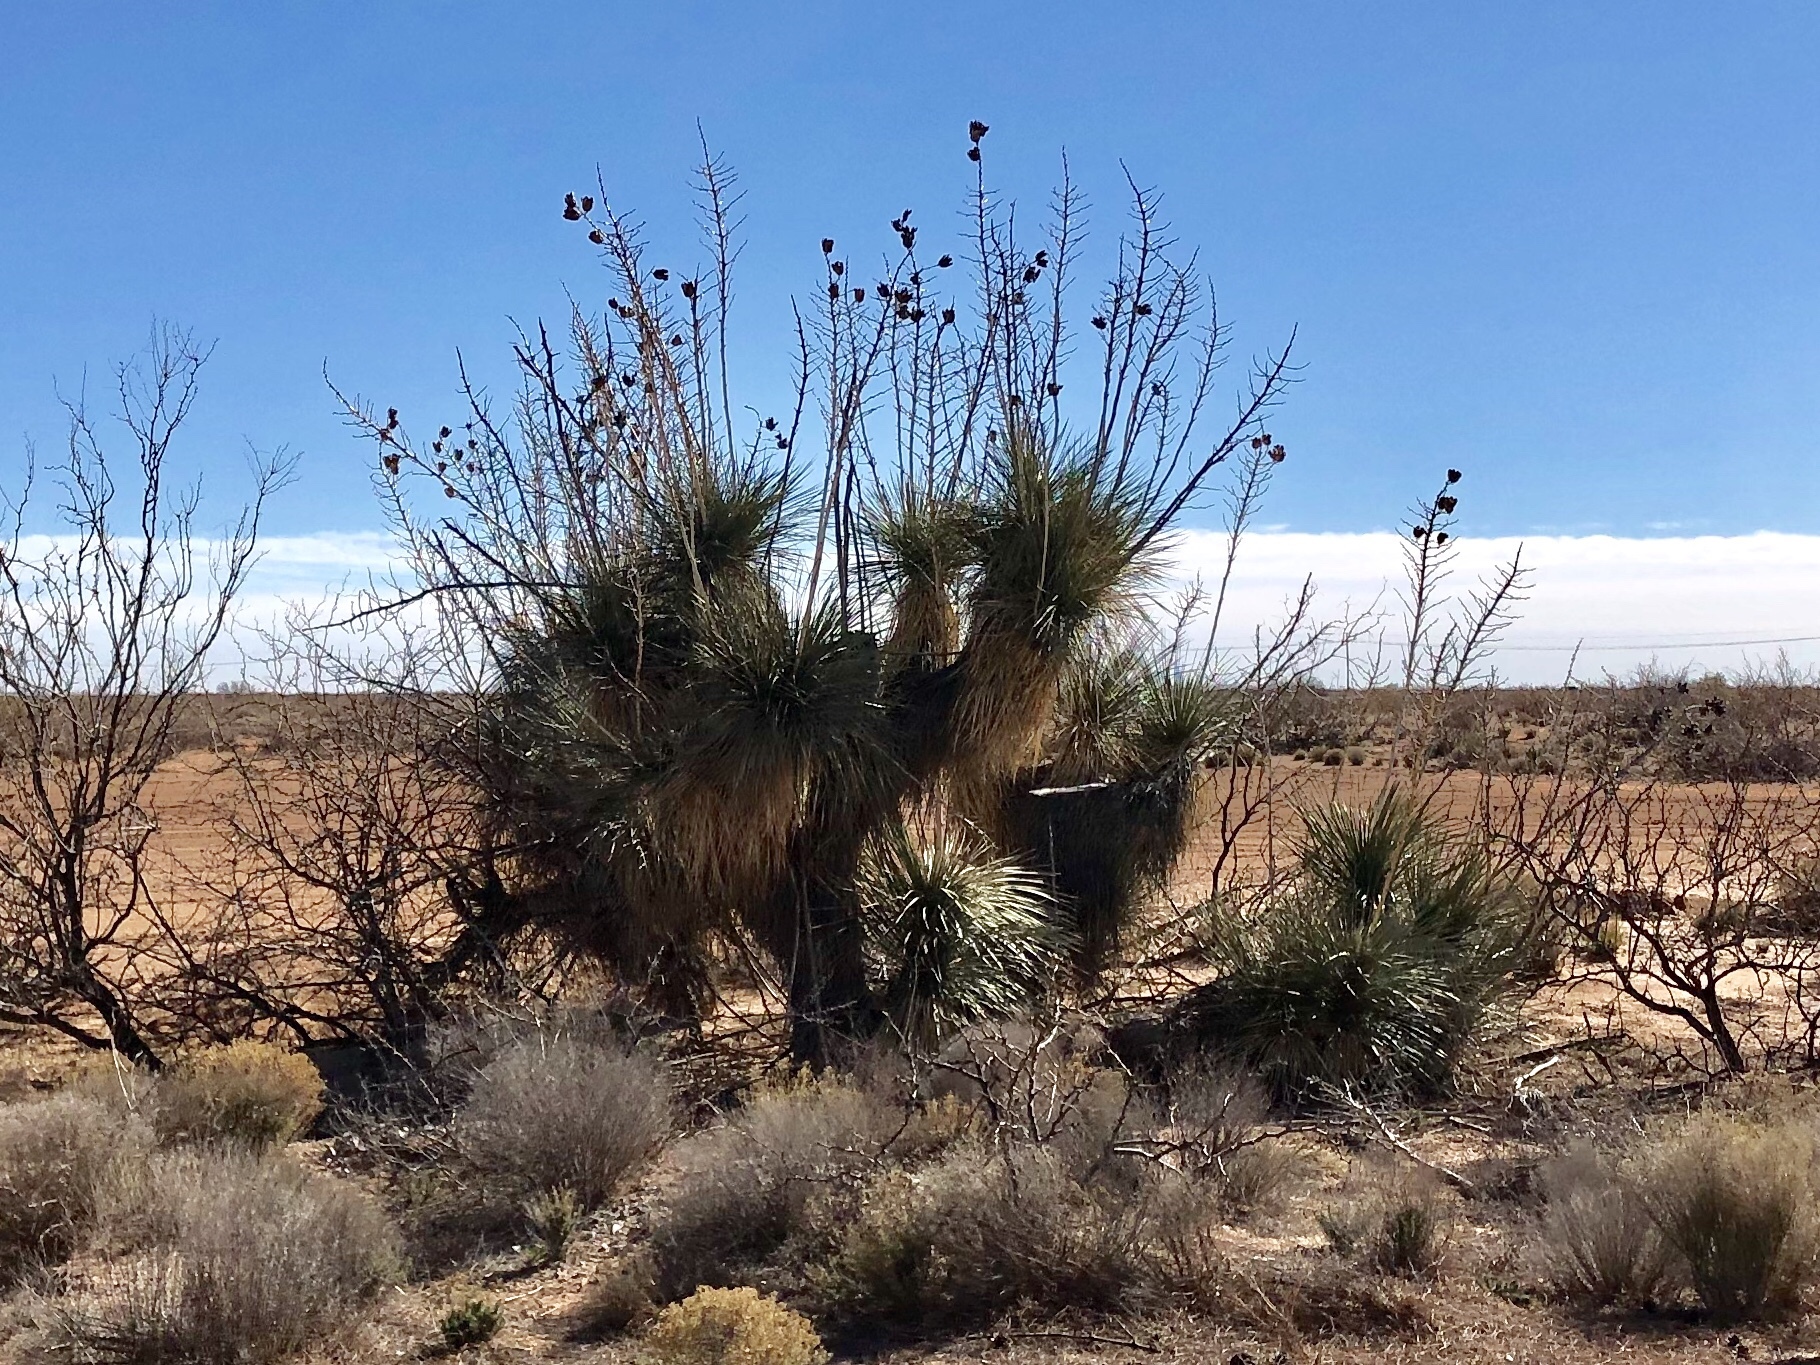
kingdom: Plantae
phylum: Tracheophyta
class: Liliopsida
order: Asparagales
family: Asparagaceae
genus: Yucca
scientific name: Yucca elata
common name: Palmella
